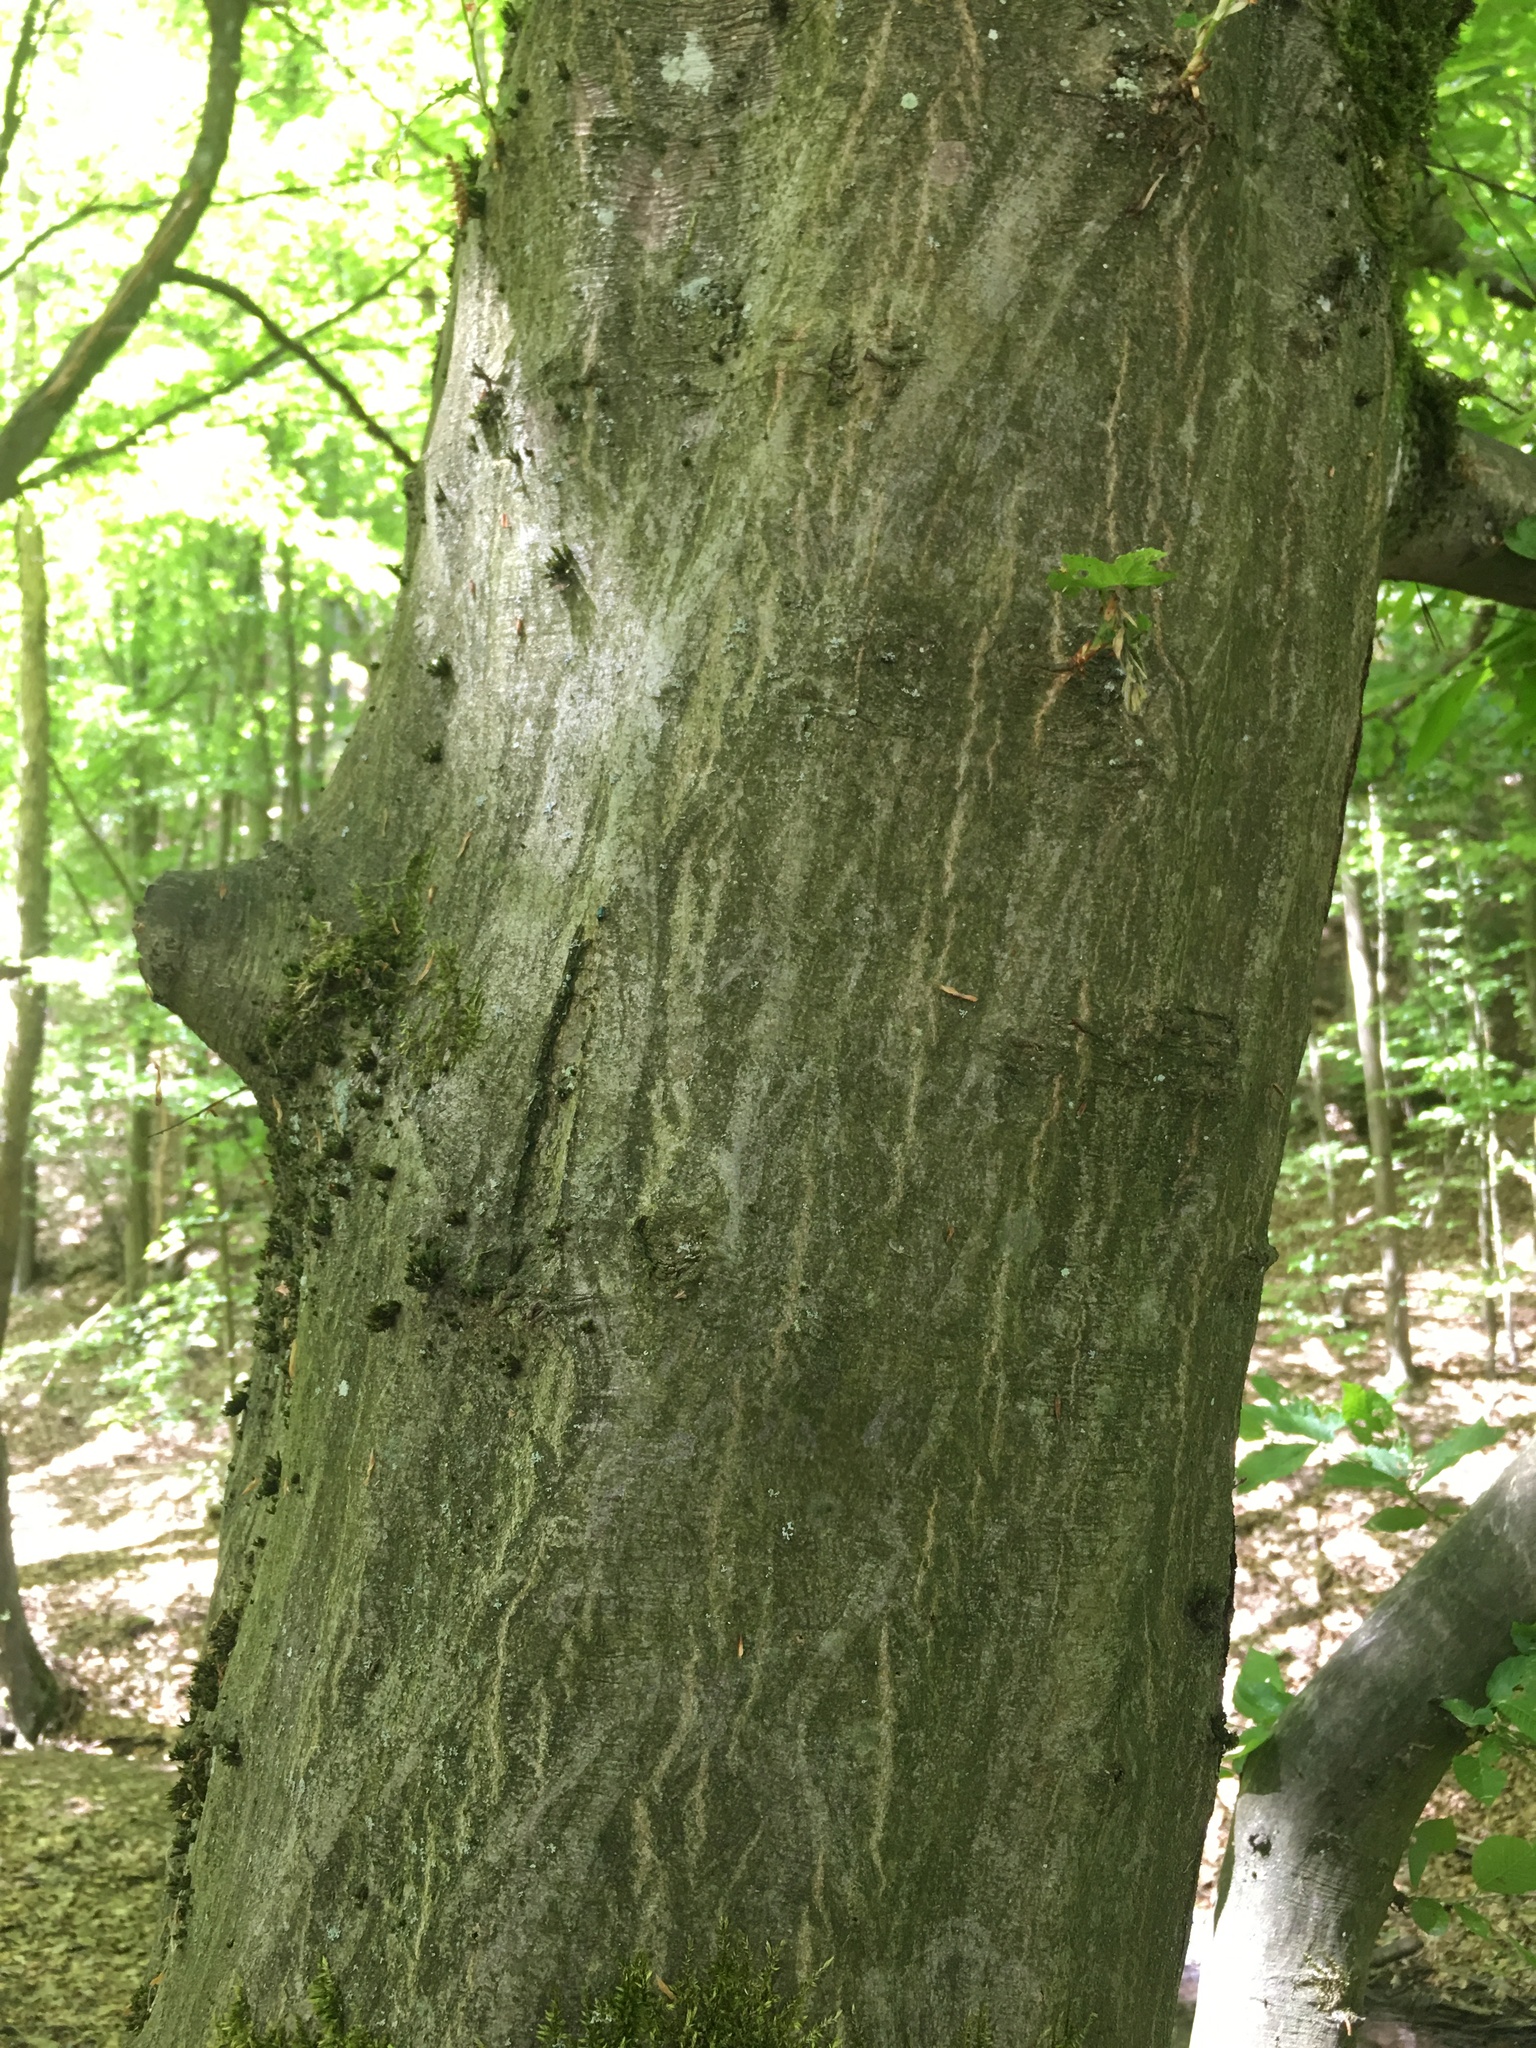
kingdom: Plantae
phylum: Tracheophyta
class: Magnoliopsida
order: Fagales
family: Betulaceae
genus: Carpinus
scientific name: Carpinus betulus
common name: Hornbeam
